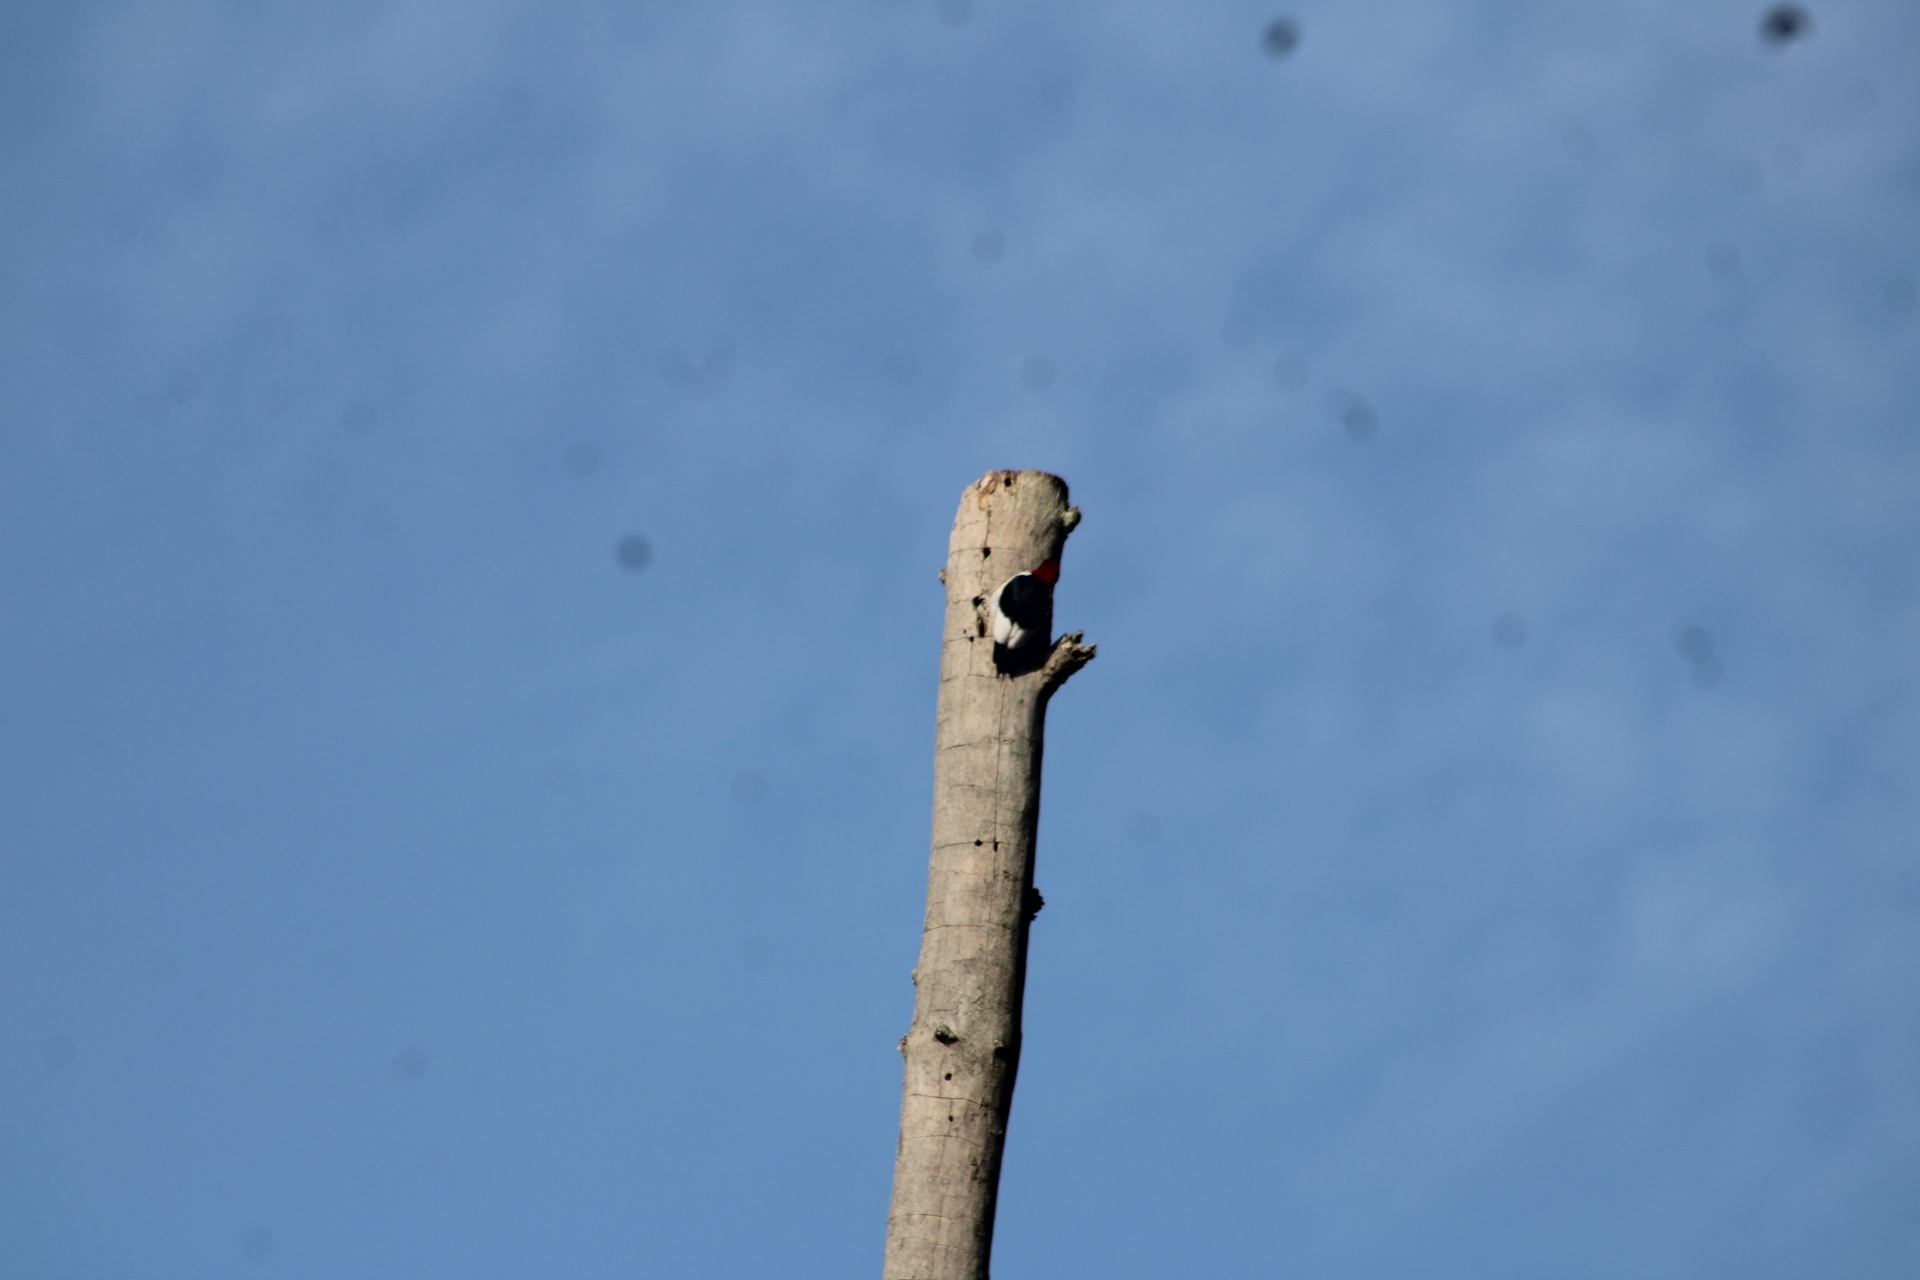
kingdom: Animalia
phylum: Chordata
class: Aves
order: Piciformes
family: Picidae
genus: Melanerpes
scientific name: Melanerpes erythrocephalus
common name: Red-headed woodpecker
